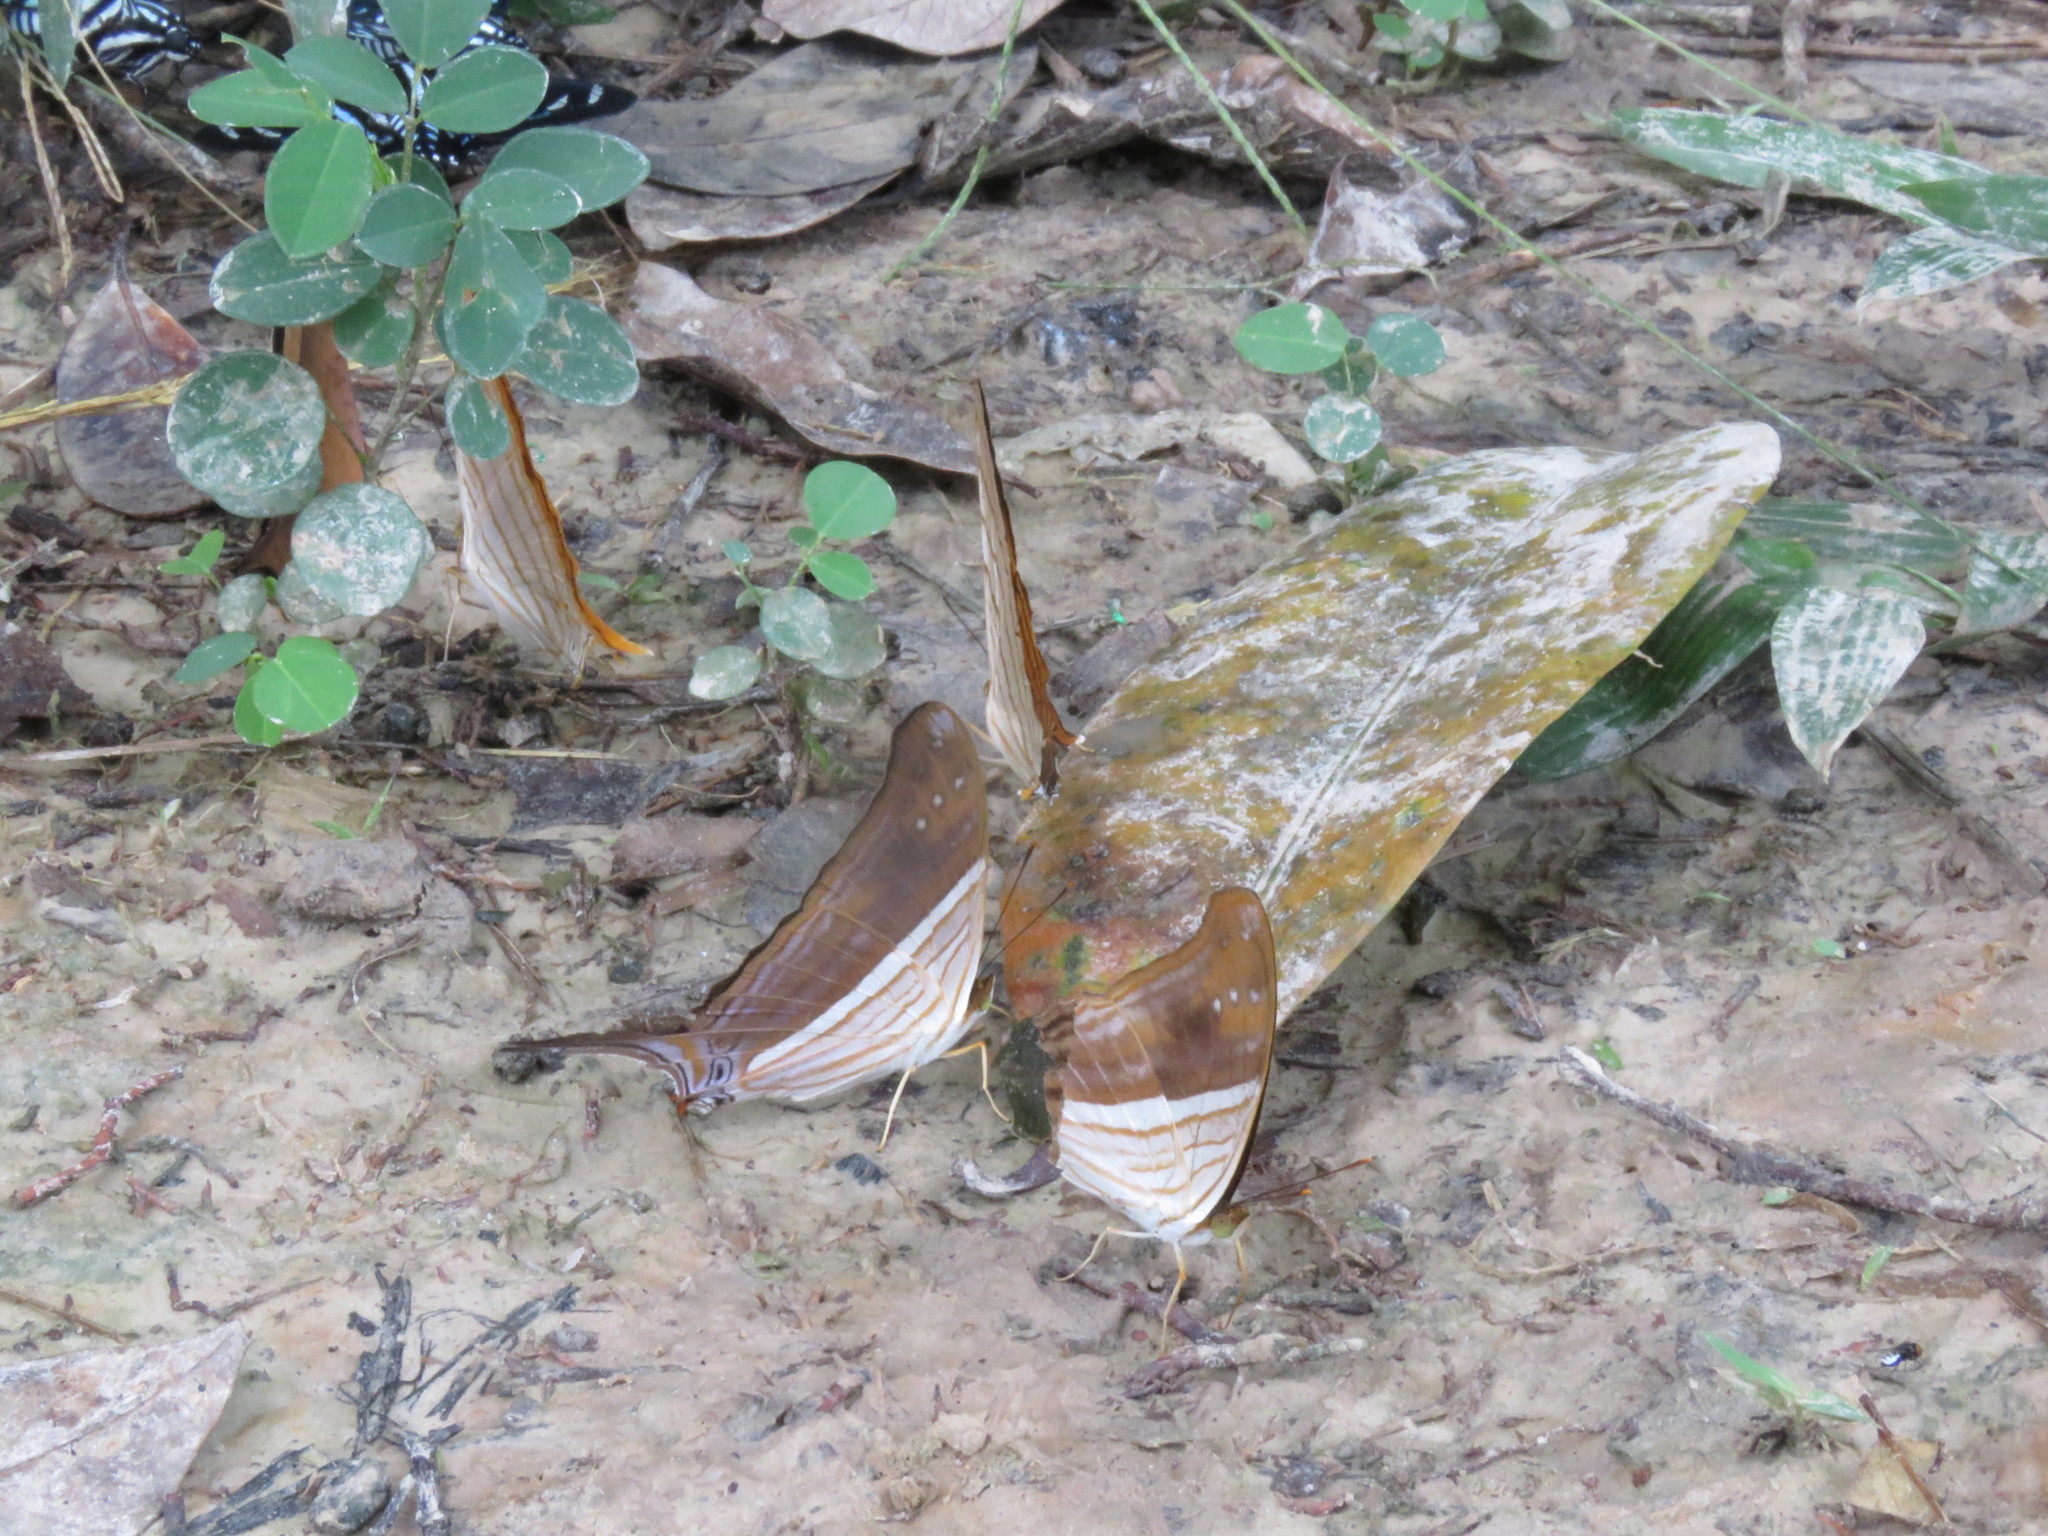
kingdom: Animalia
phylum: Arthropoda
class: Insecta
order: Lepidoptera
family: Nymphalidae
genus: Marpesia
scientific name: Marpesia chiron
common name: Many-banded daggerwing
